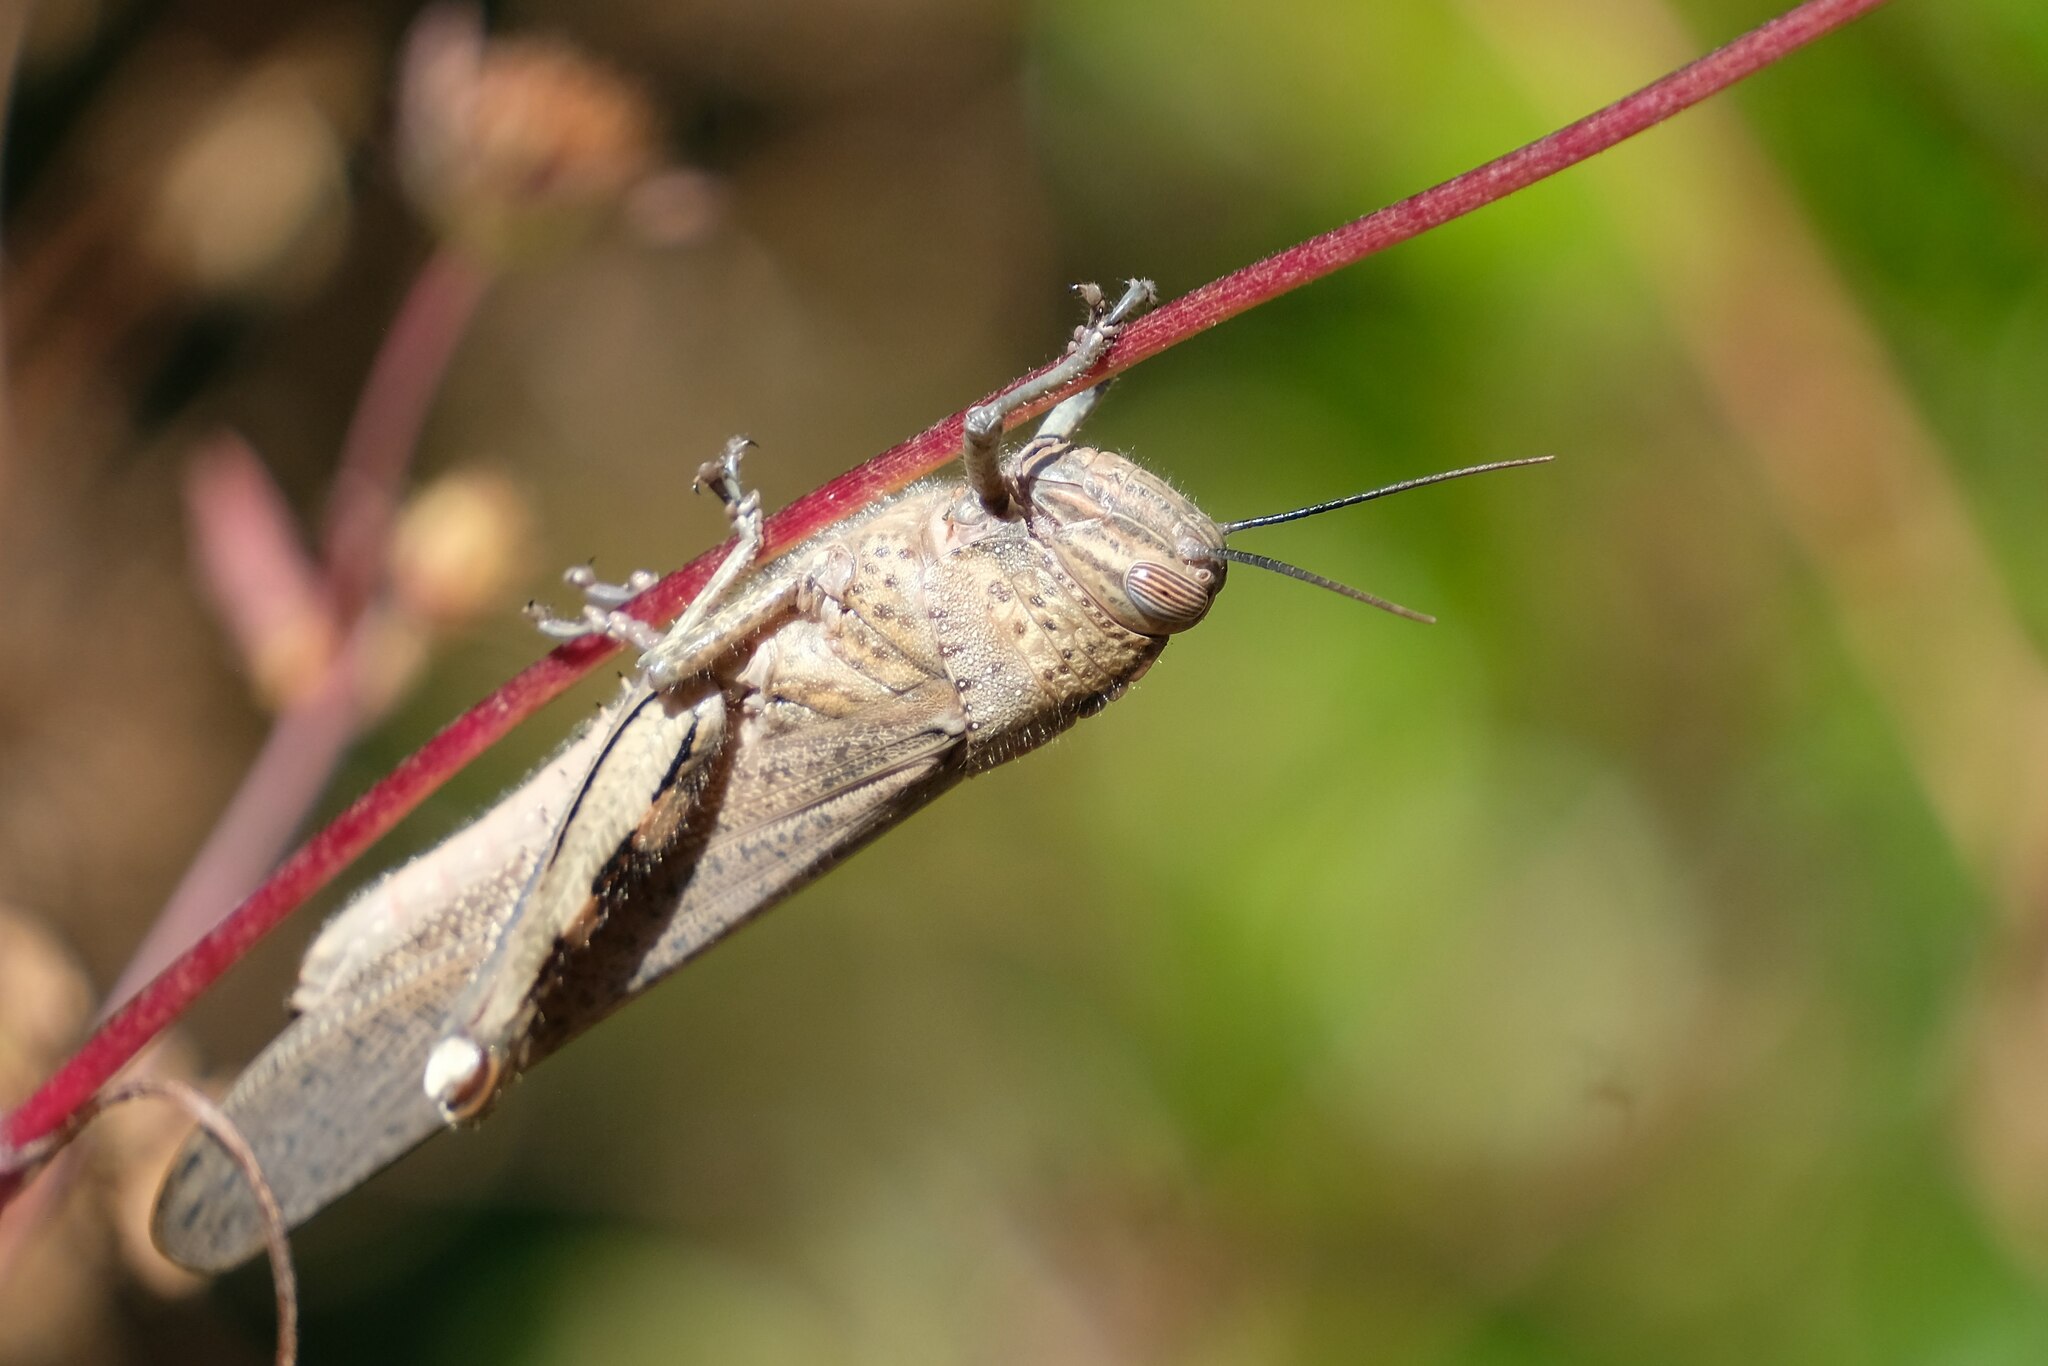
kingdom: Animalia
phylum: Arthropoda
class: Insecta
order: Orthoptera
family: Acrididae
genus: Anacridium
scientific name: Anacridium aegyptium
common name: Egyptian grasshopper
